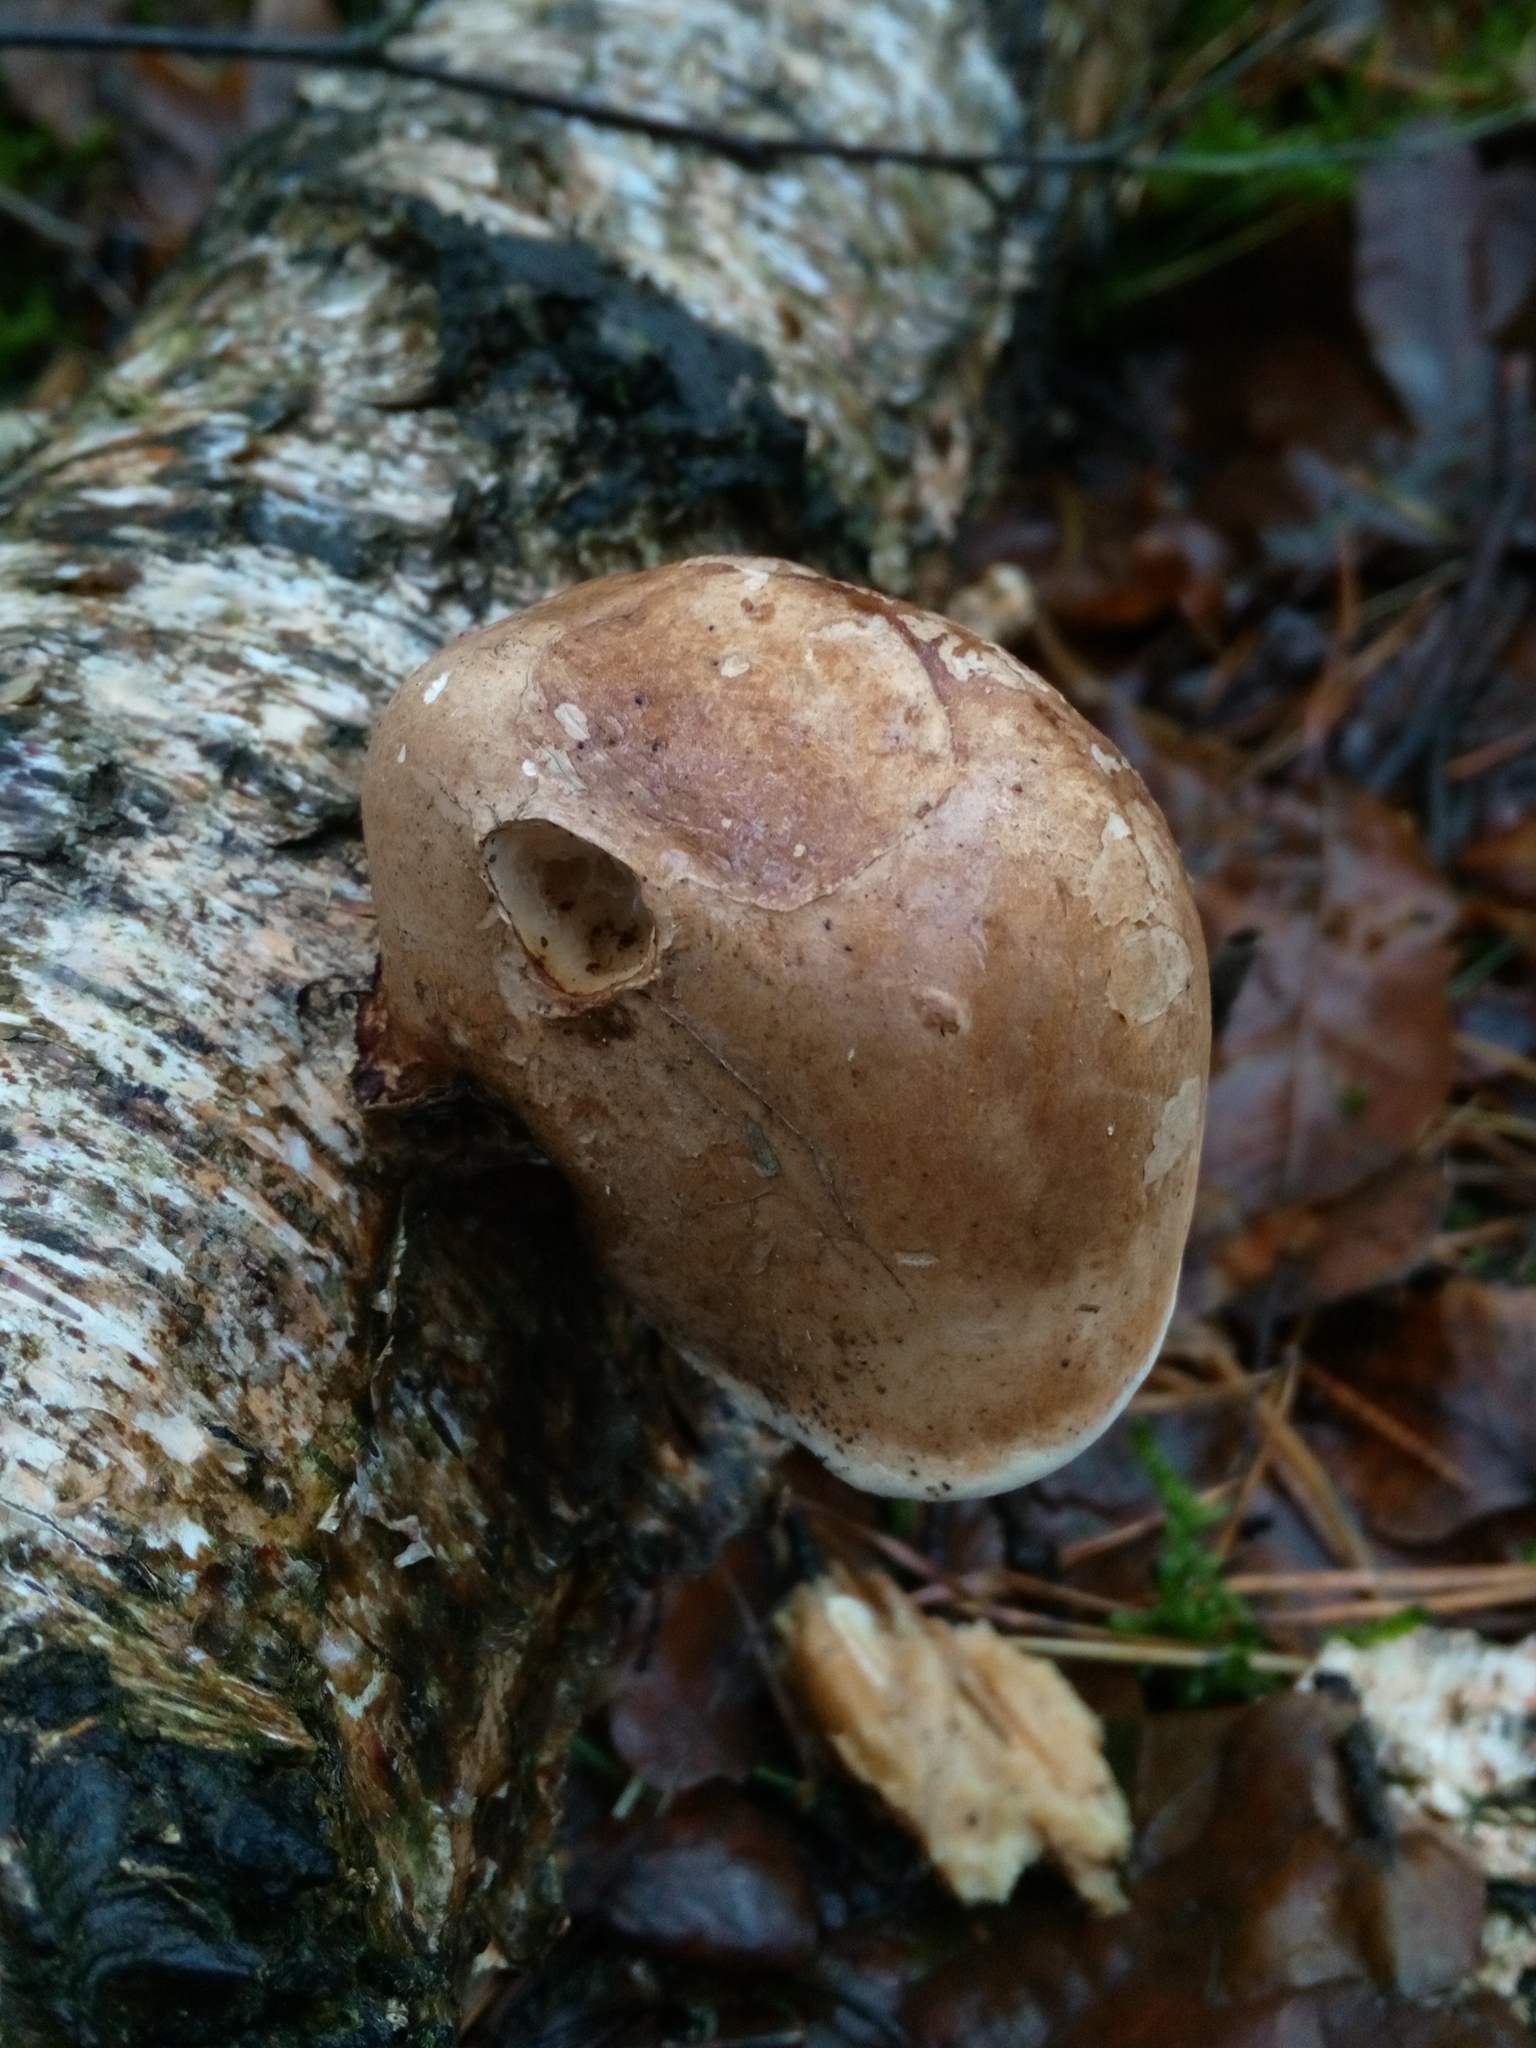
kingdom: Fungi
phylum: Basidiomycota
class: Agaricomycetes
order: Polyporales
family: Fomitopsidaceae
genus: Fomitopsis
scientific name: Fomitopsis betulina
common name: Birch polypore
